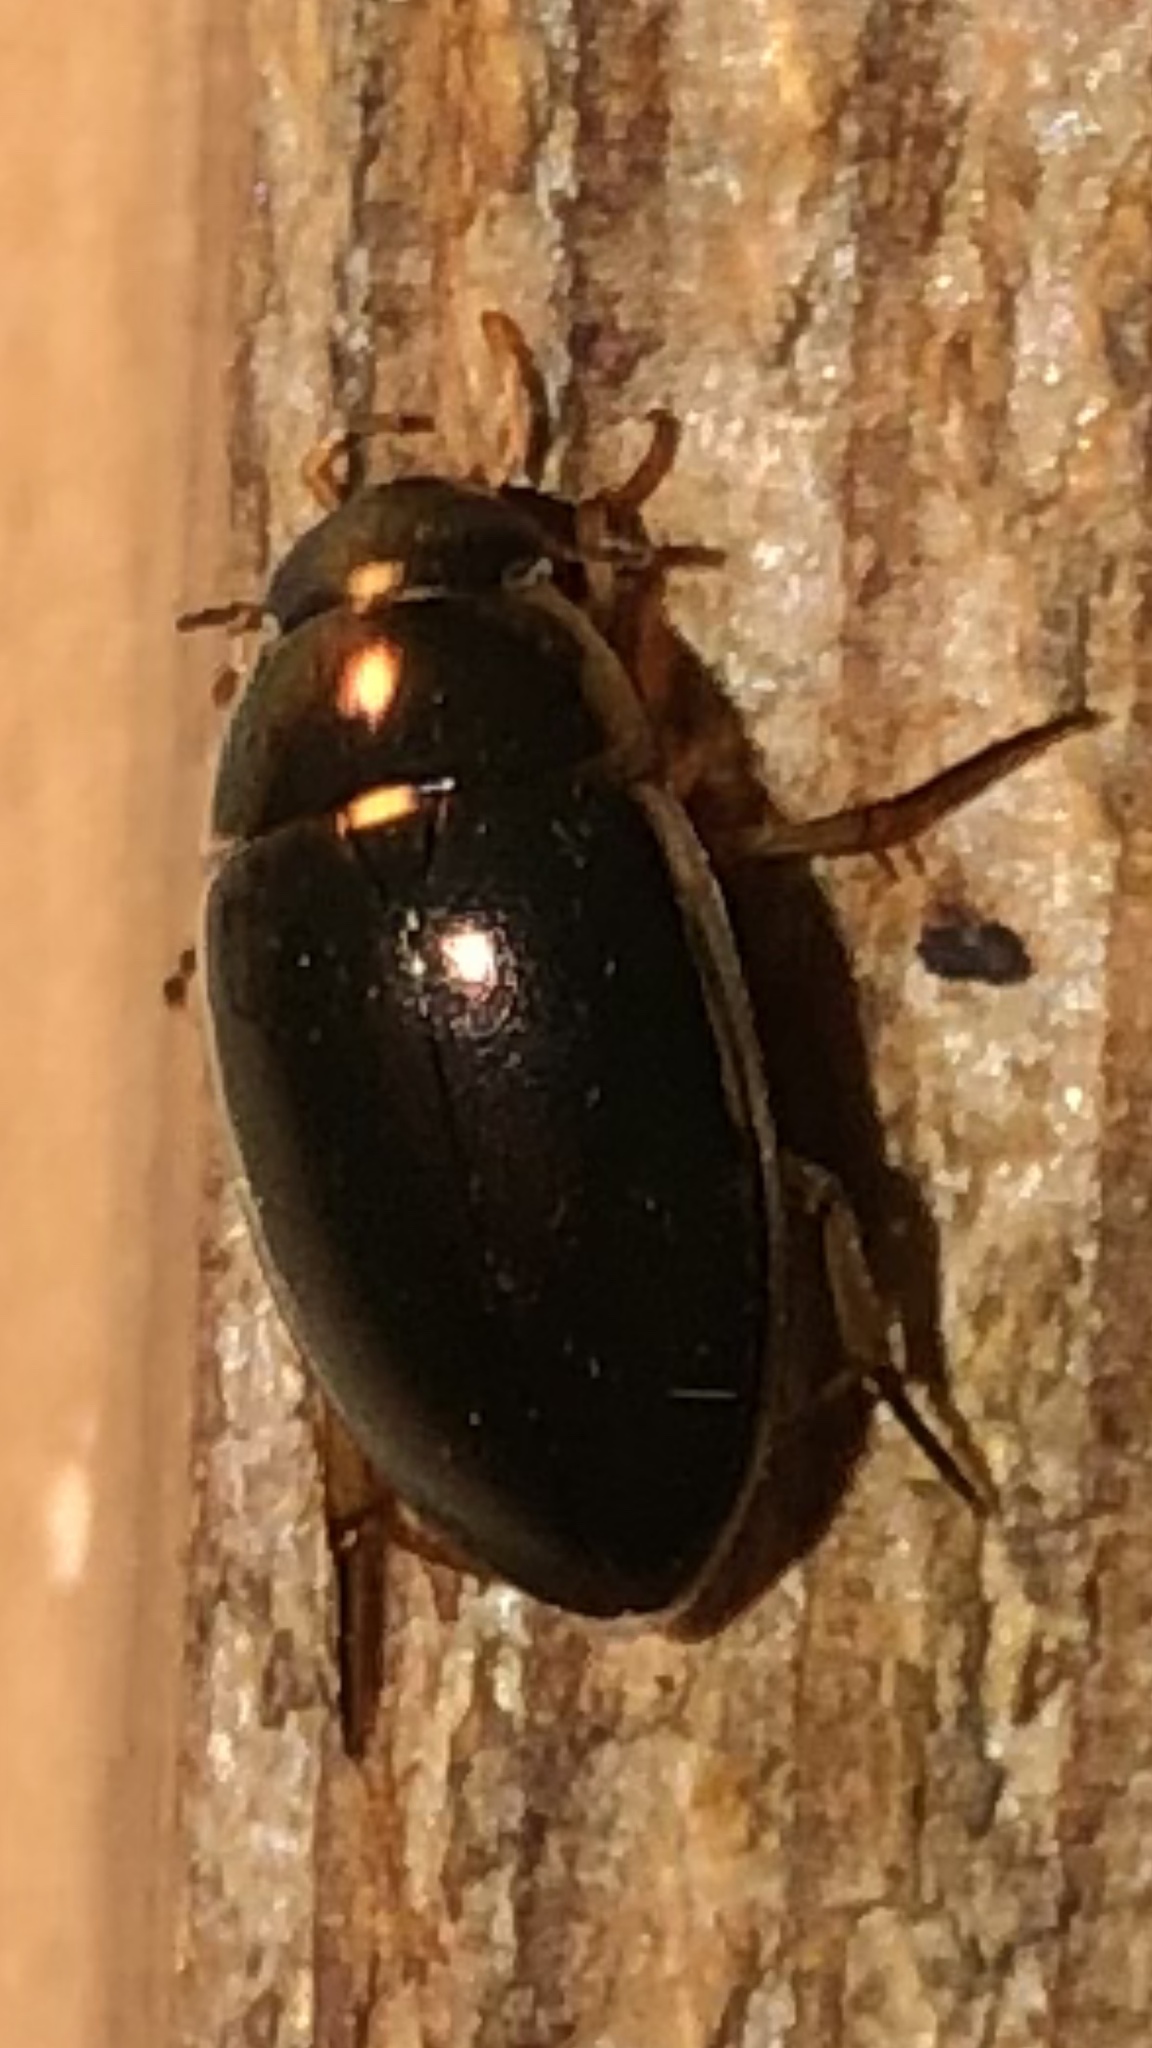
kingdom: Animalia
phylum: Arthropoda
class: Insecta
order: Coleoptera
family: Hydrophilidae
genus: Tropisternus
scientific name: Tropisternus lateralis
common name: Lateral-banded water scavenger beetle
